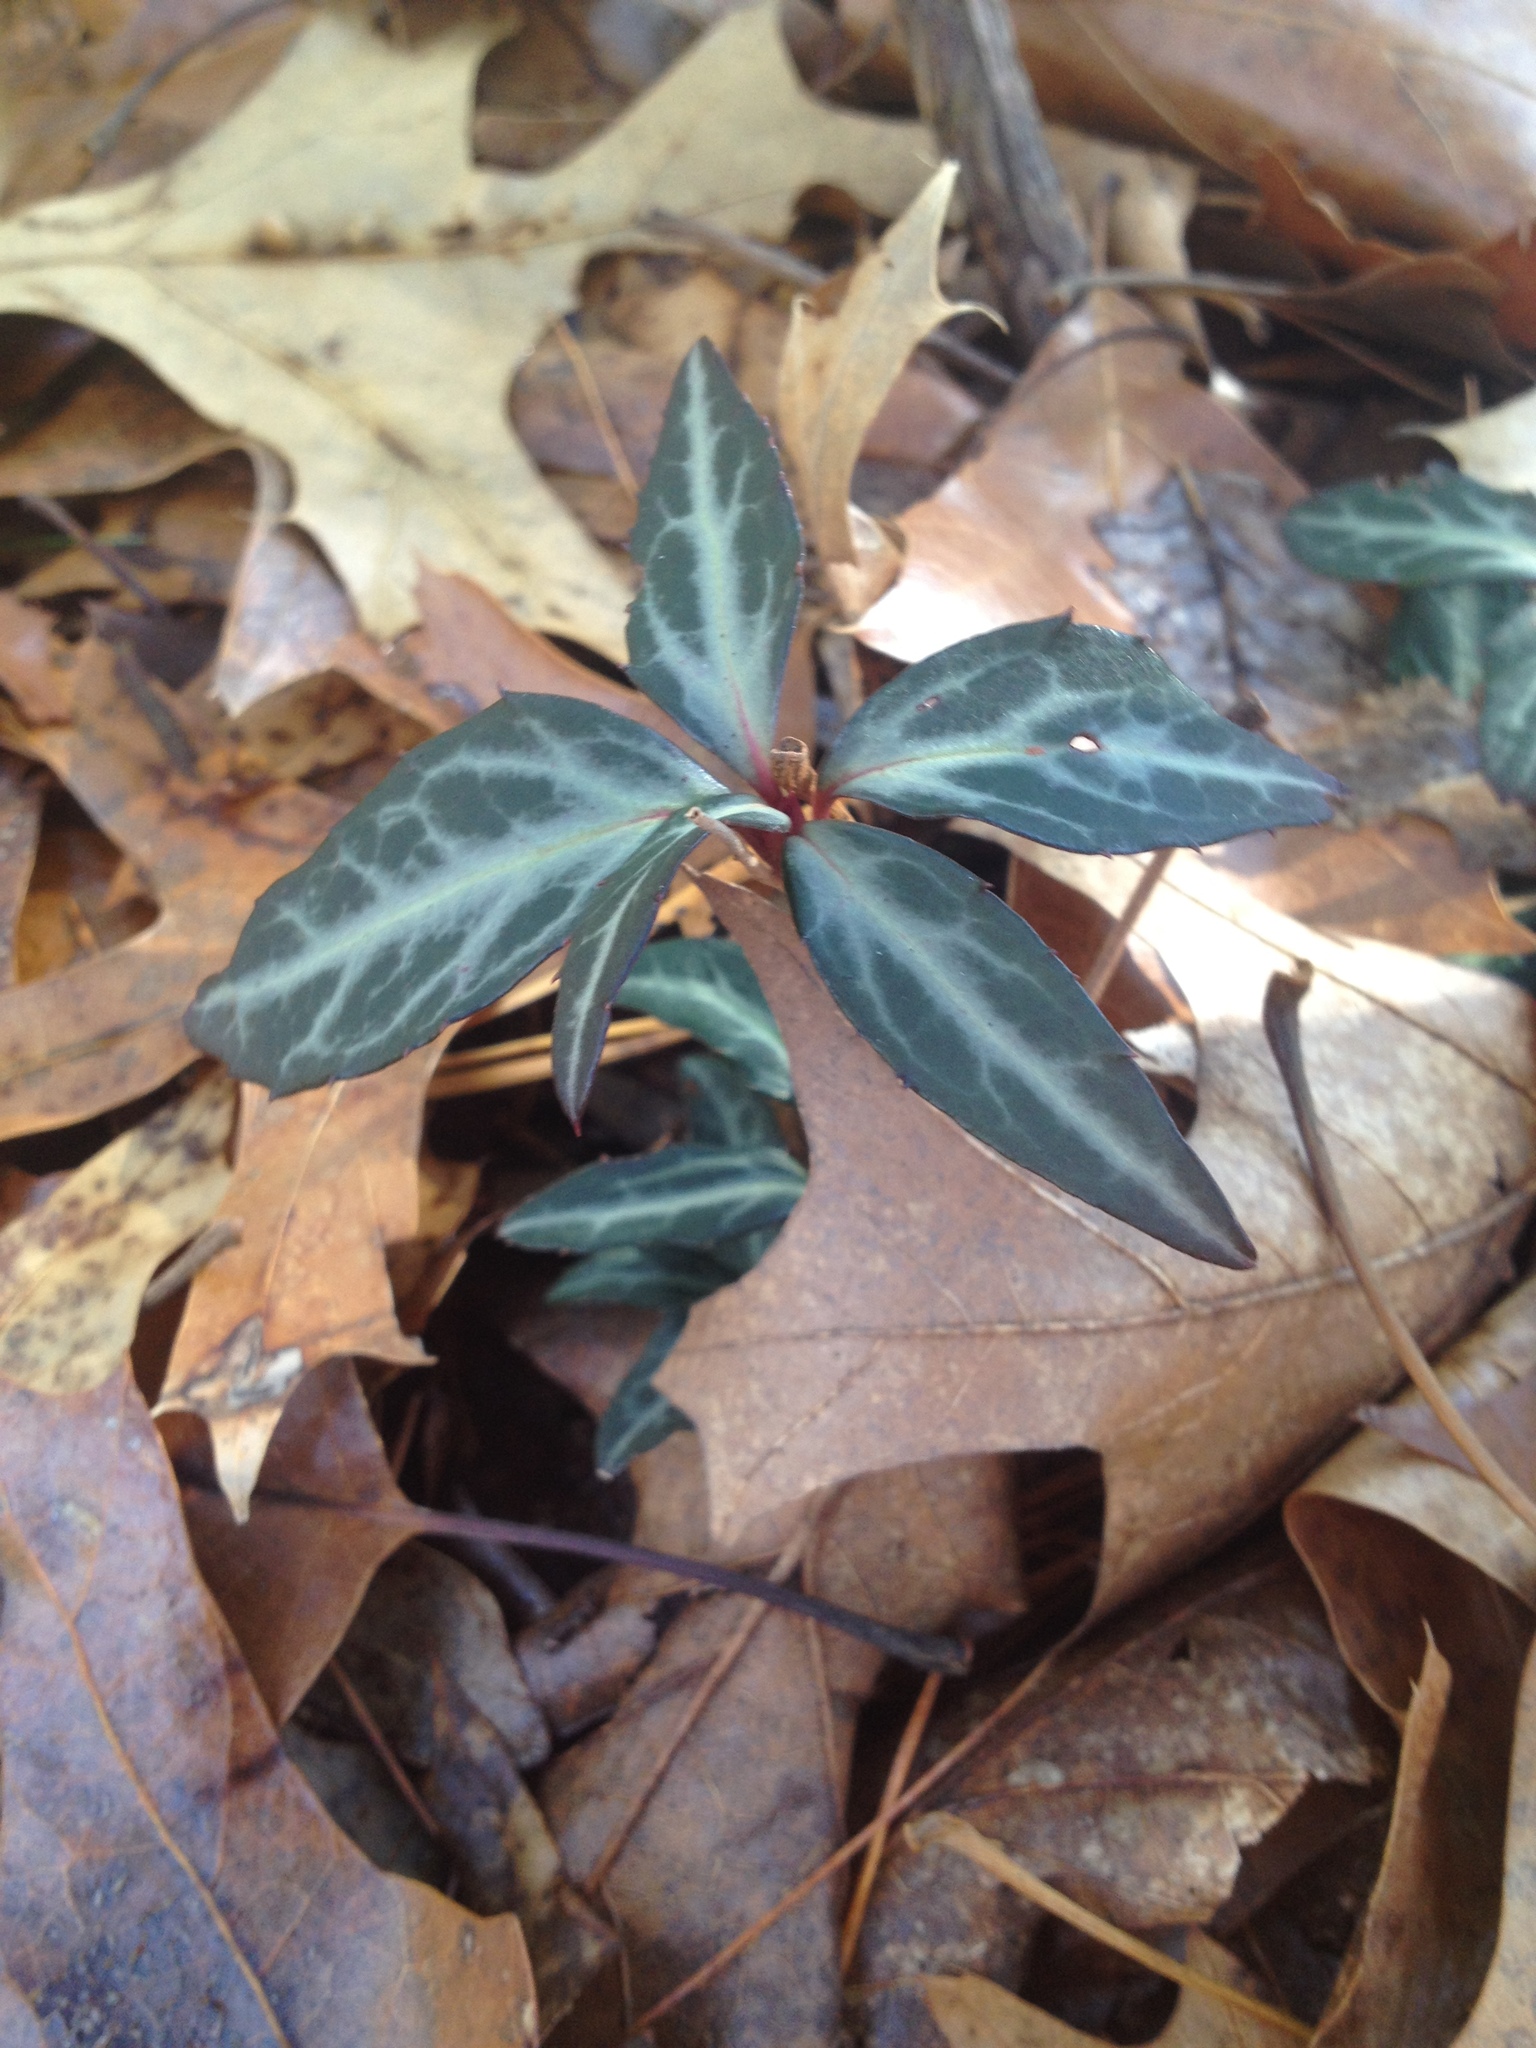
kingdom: Plantae
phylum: Tracheophyta
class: Magnoliopsida
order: Ericales
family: Ericaceae
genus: Chimaphila
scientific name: Chimaphila maculata
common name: Spotted pipsissewa
